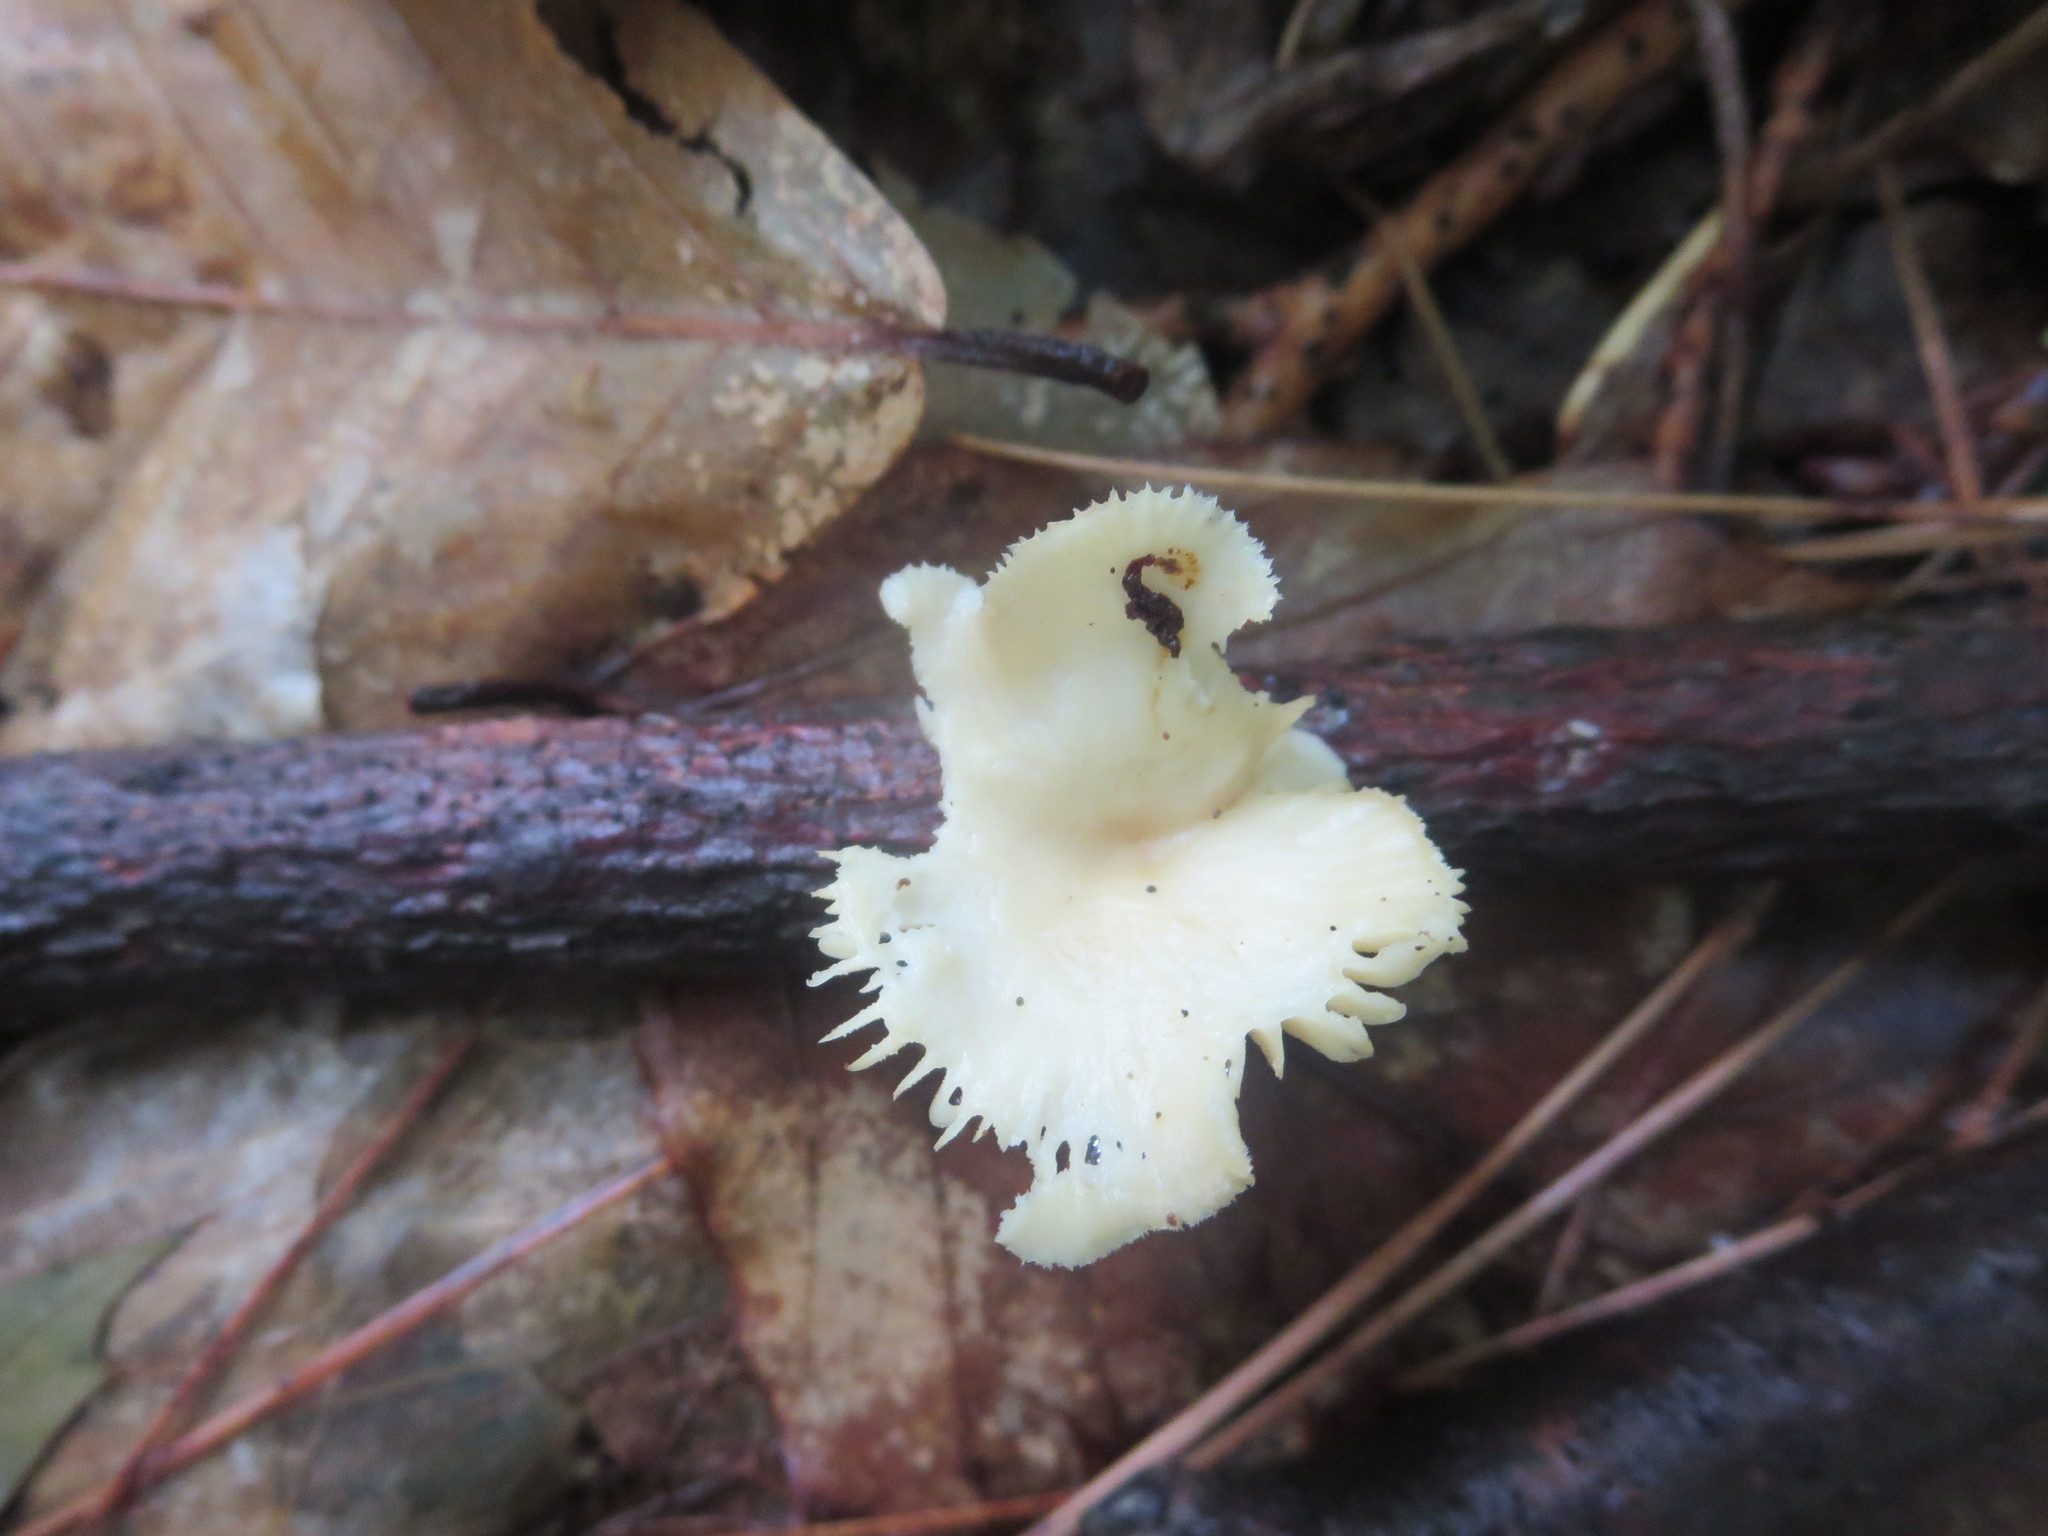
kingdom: Fungi
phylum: Basidiomycota
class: Agaricomycetes
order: Polyporales
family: Polyporaceae
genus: Neofavolus
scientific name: Neofavolus suavissimus
